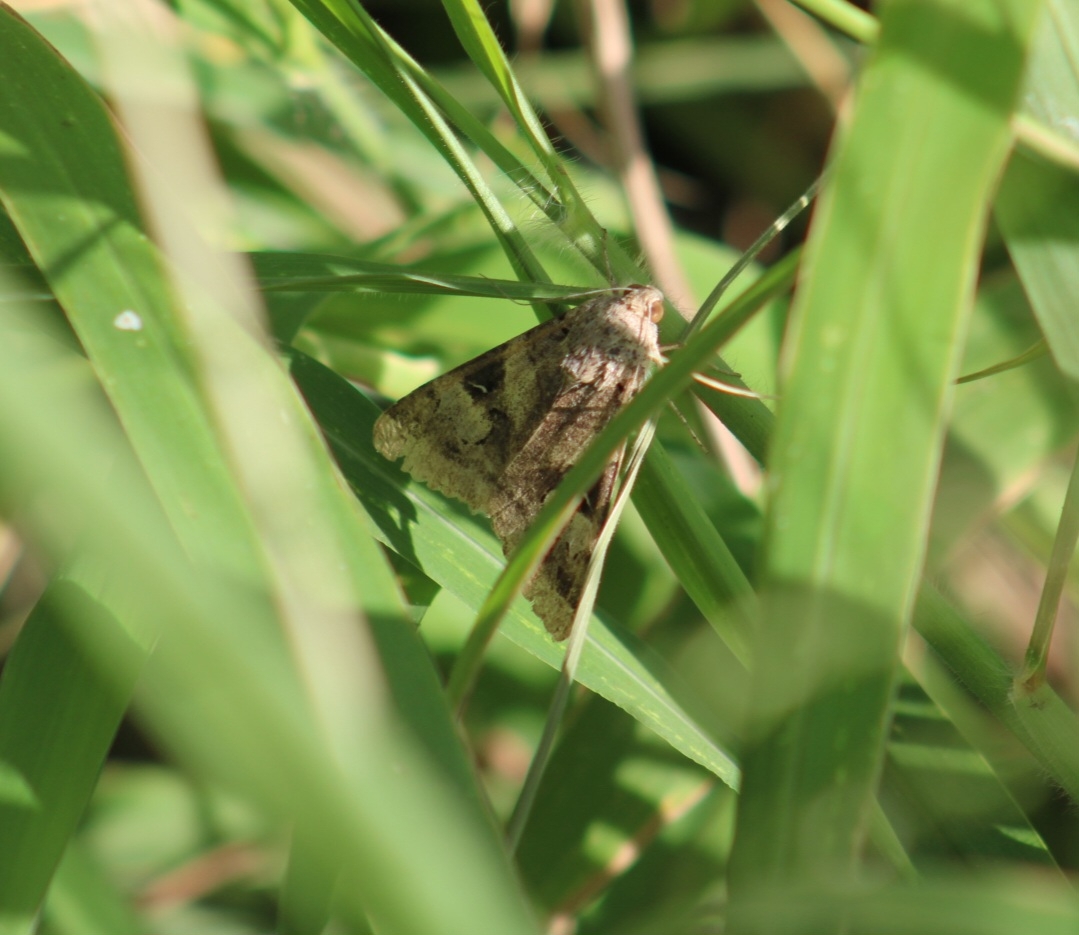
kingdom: Animalia
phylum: Arthropoda
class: Insecta
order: Lepidoptera
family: Erebidae
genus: Melipotis
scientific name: Melipotis indomita
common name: Moth
